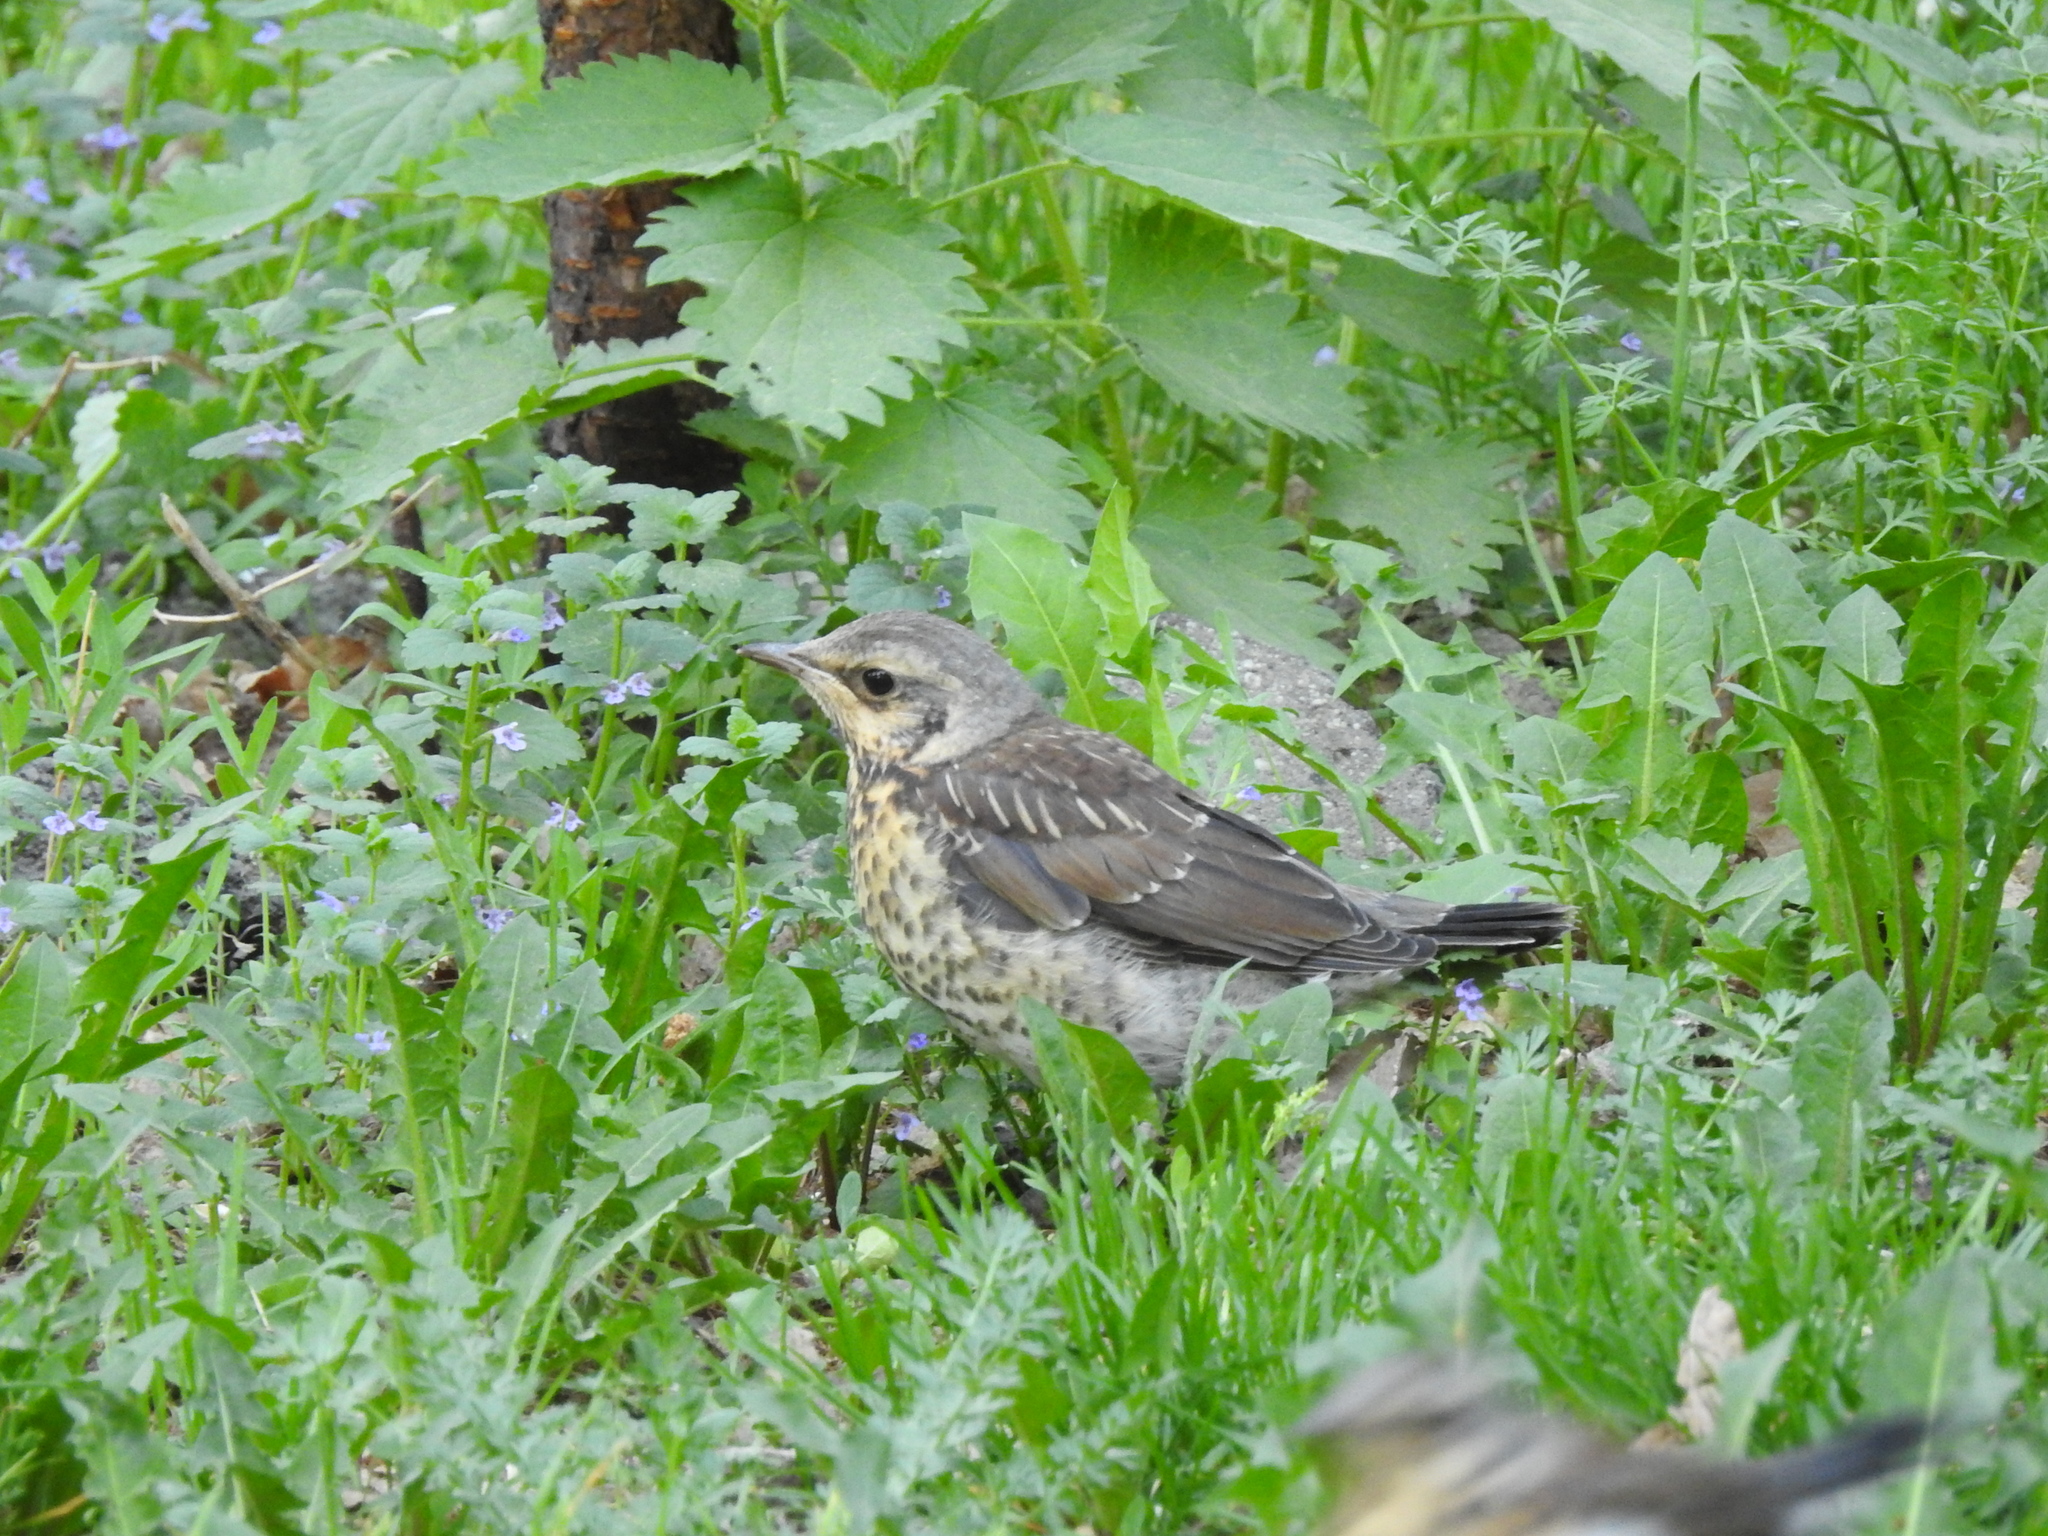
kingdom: Animalia
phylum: Chordata
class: Aves
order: Passeriformes
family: Turdidae
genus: Turdus
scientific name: Turdus pilaris
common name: Fieldfare
